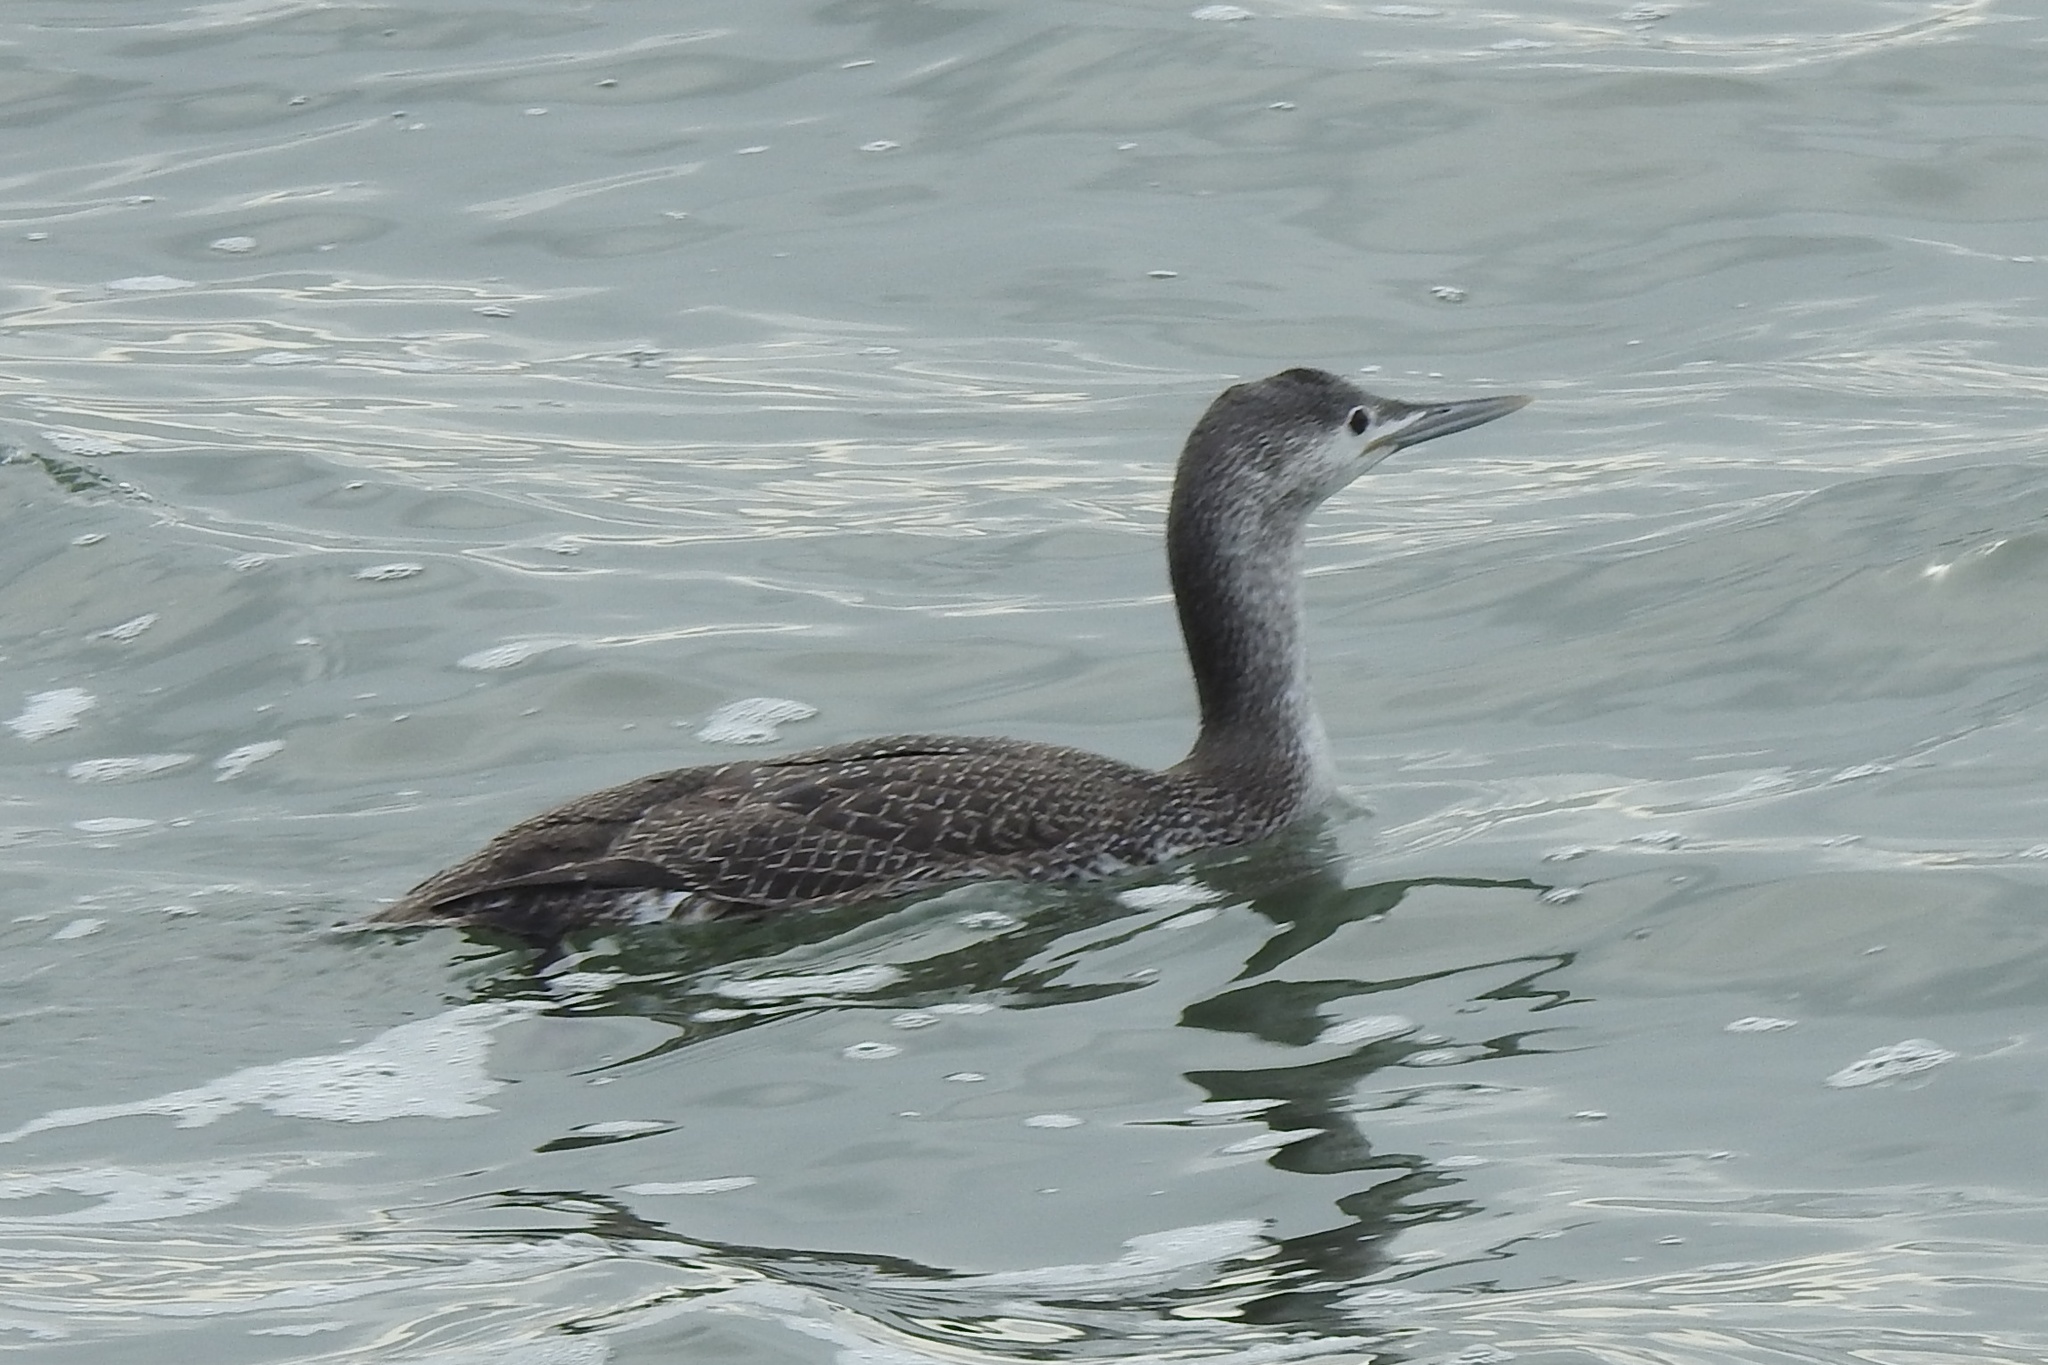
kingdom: Animalia
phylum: Chordata
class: Aves
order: Gaviiformes
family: Gaviidae
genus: Gavia
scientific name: Gavia stellata
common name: Red-throated loon
